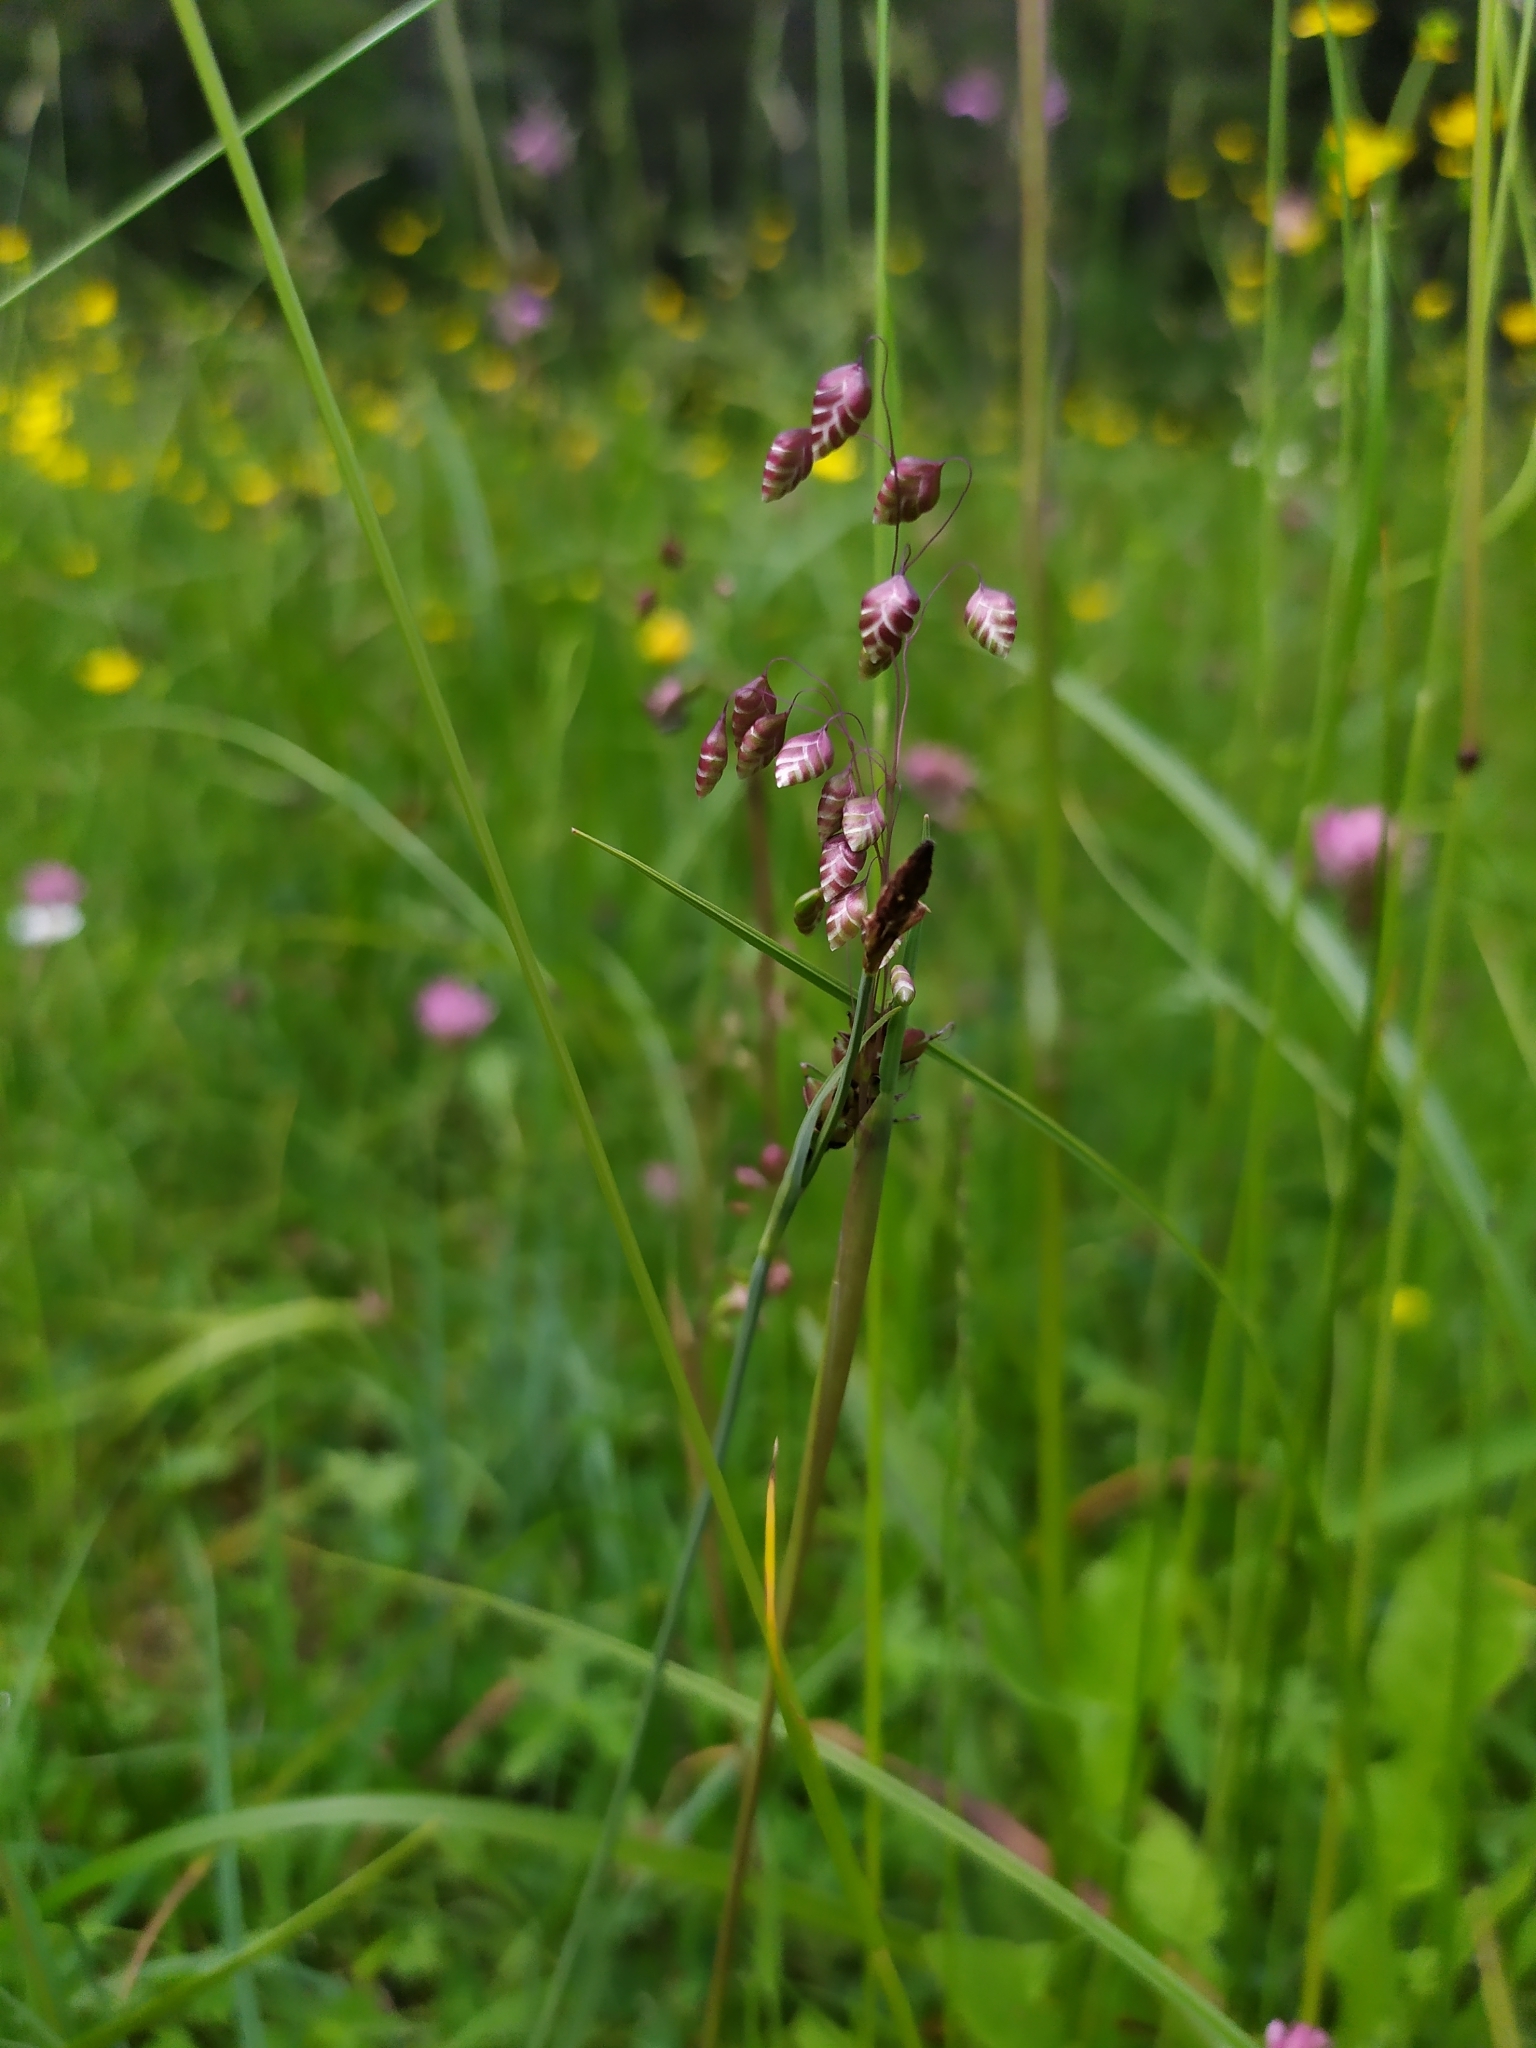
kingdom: Plantae
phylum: Tracheophyta
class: Liliopsida
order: Poales
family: Poaceae
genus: Briza
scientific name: Briza media
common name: Quaking grass
